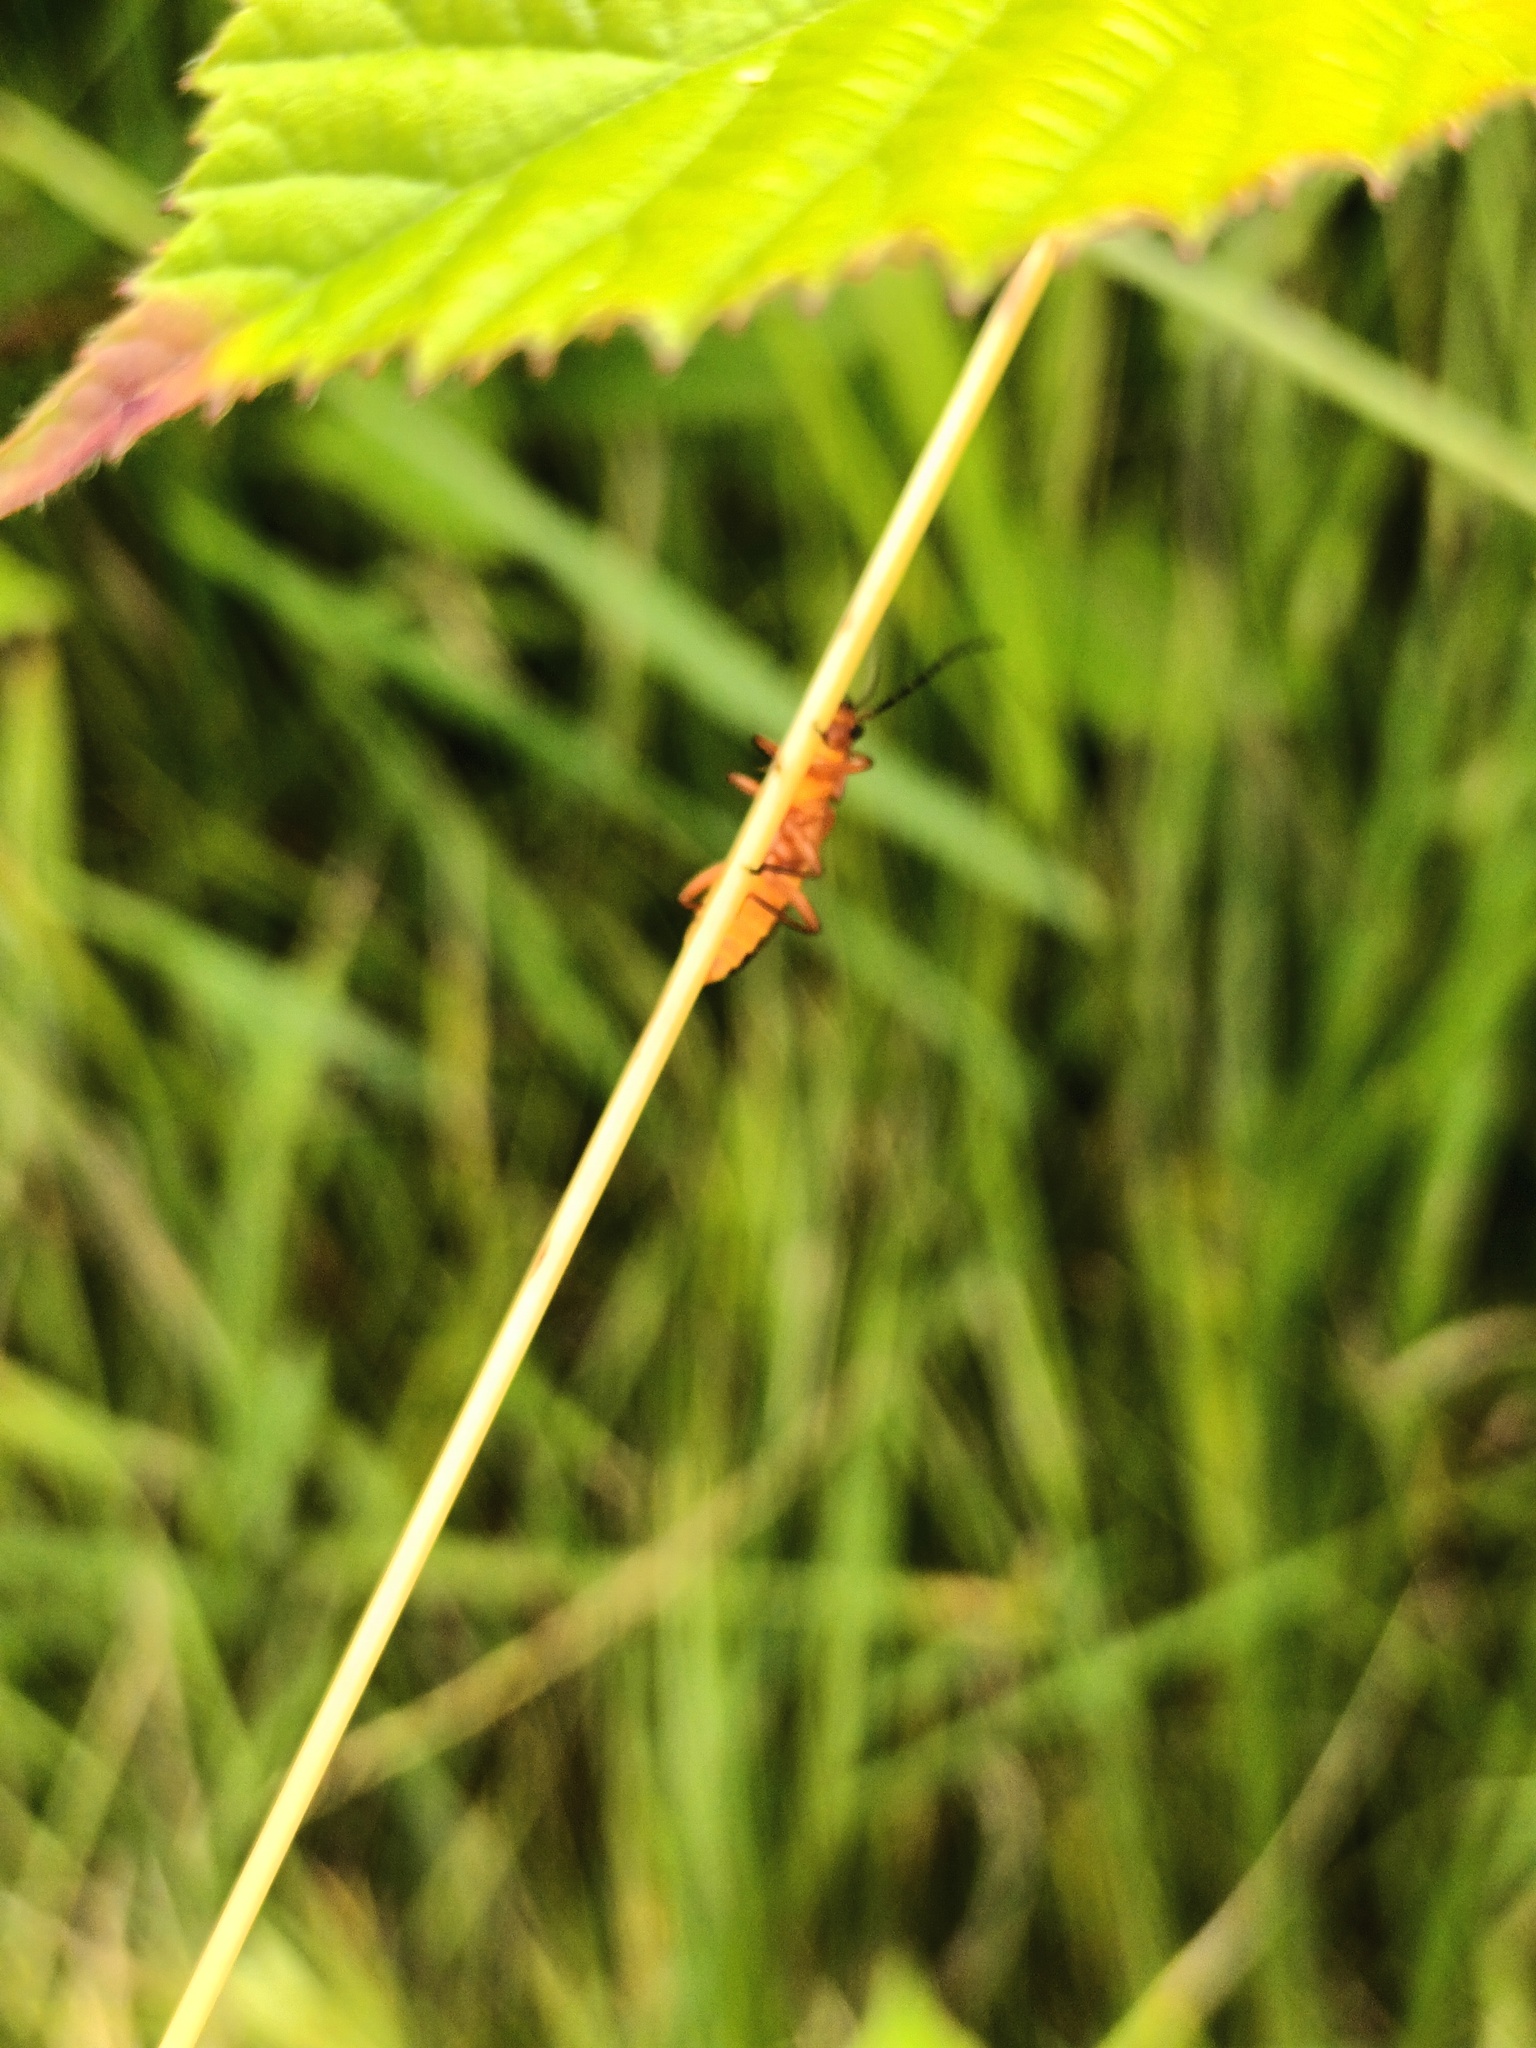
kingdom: Animalia
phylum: Arthropoda
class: Insecta
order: Coleoptera
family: Cantharidae
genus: Rhagonycha
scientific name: Rhagonycha fulva
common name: Common red soldier beetle
